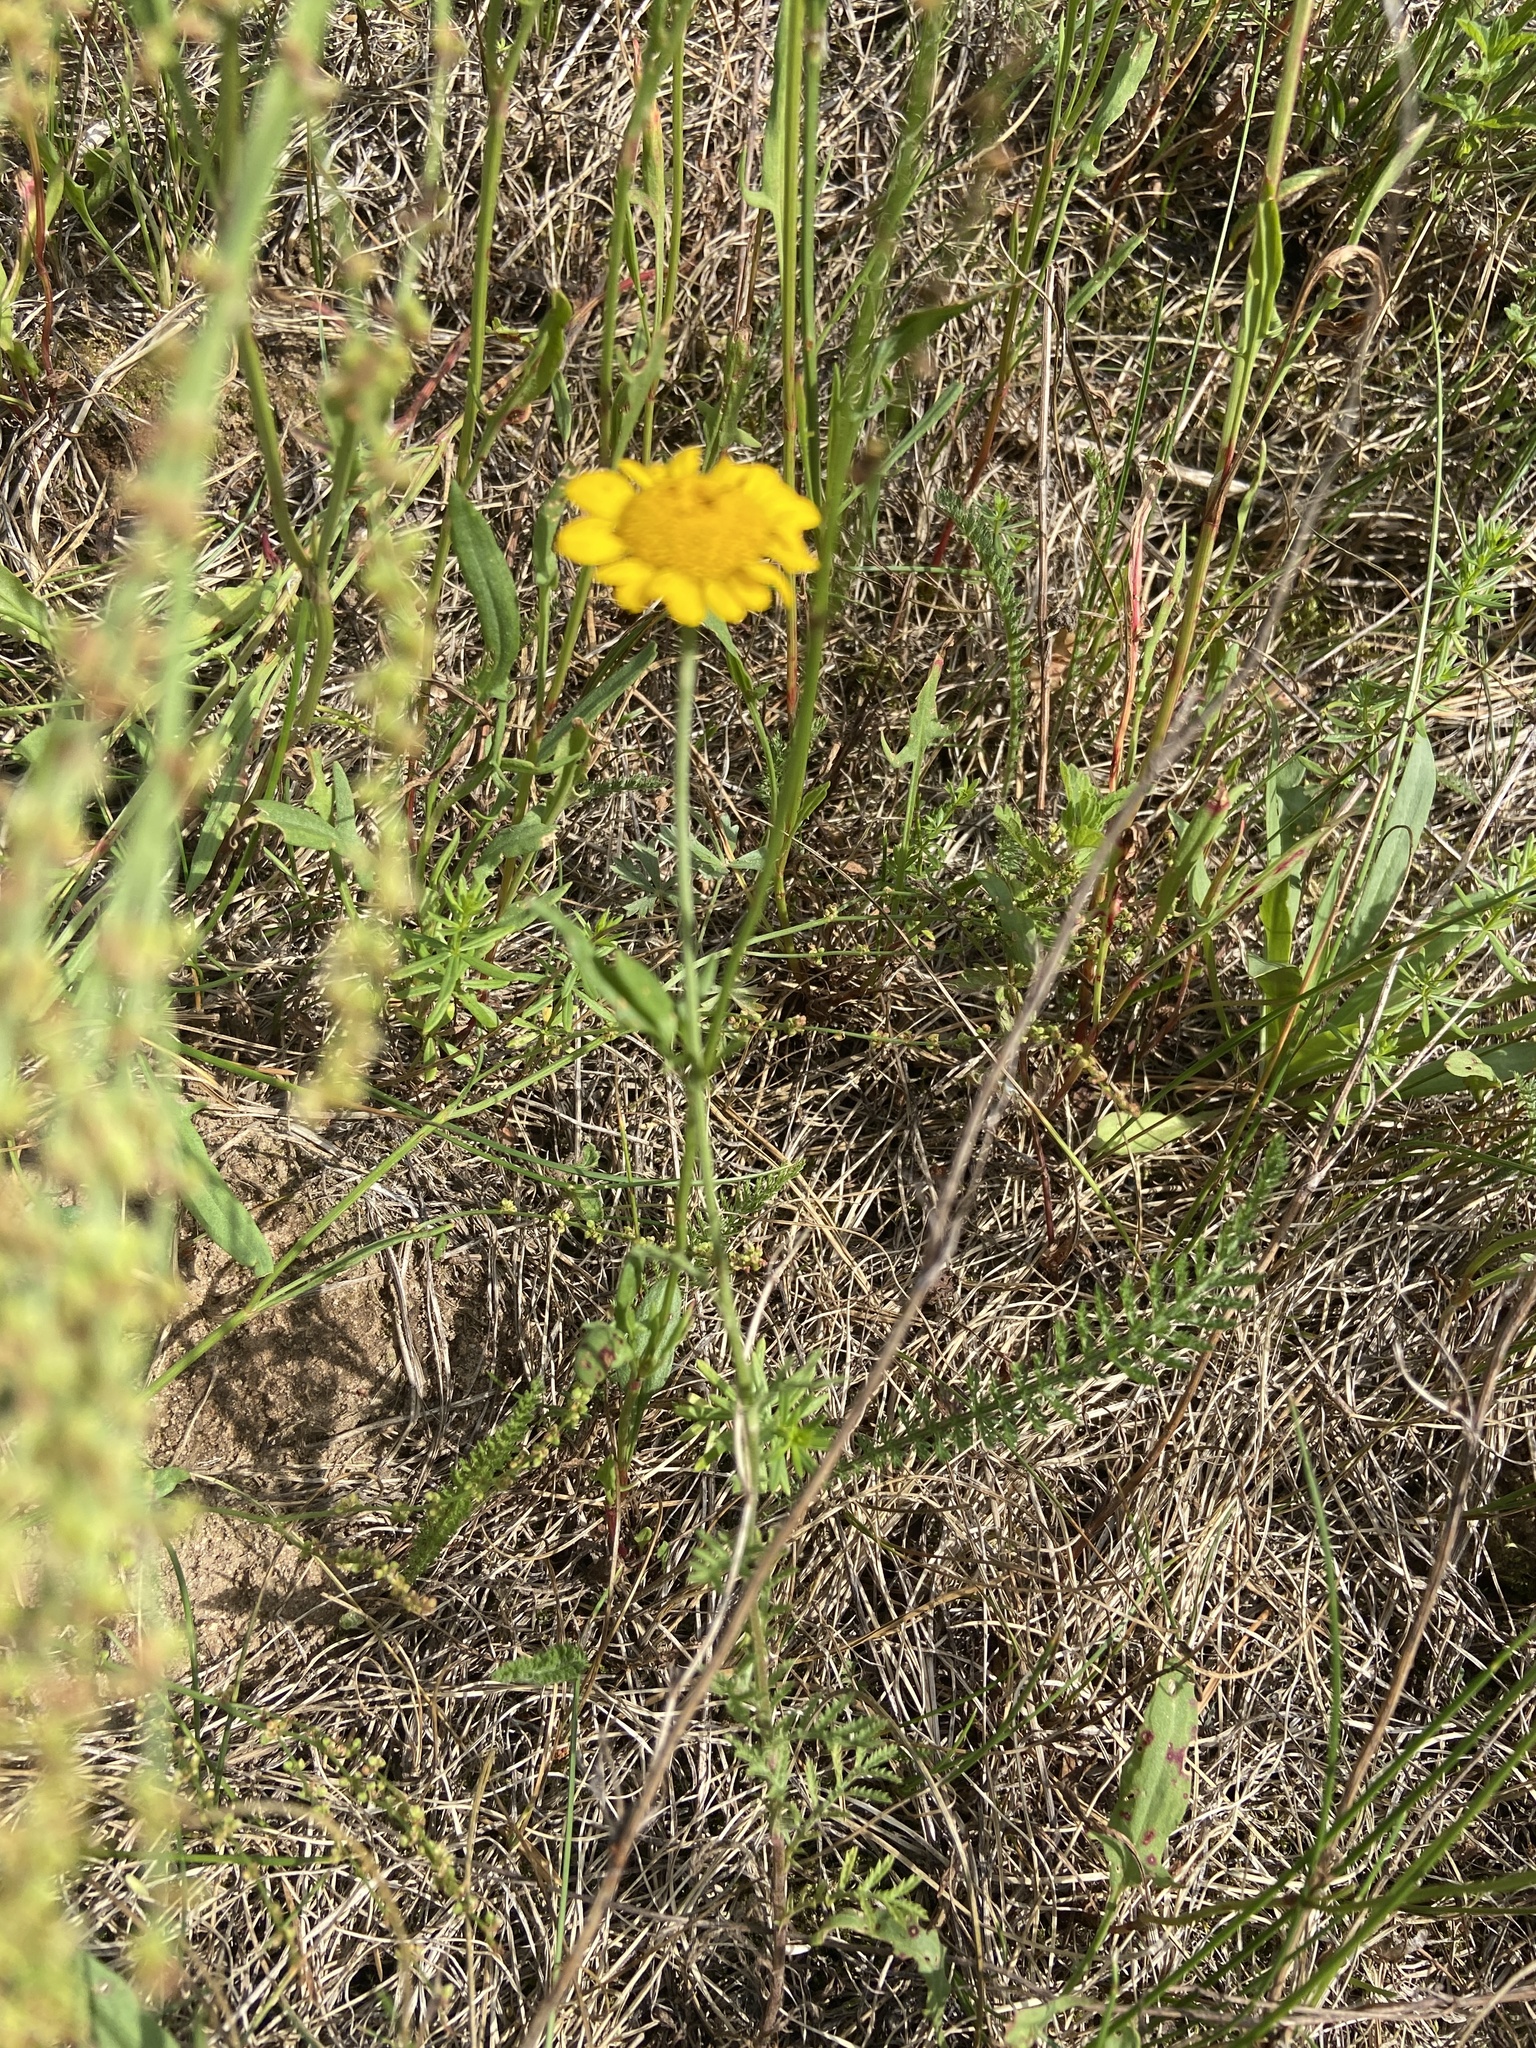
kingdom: Plantae
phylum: Tracheophyta
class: Magnoliopsida
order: Asterales
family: Asteraceae
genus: Cota
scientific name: Cota tinctoria
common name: Golden chamomile
